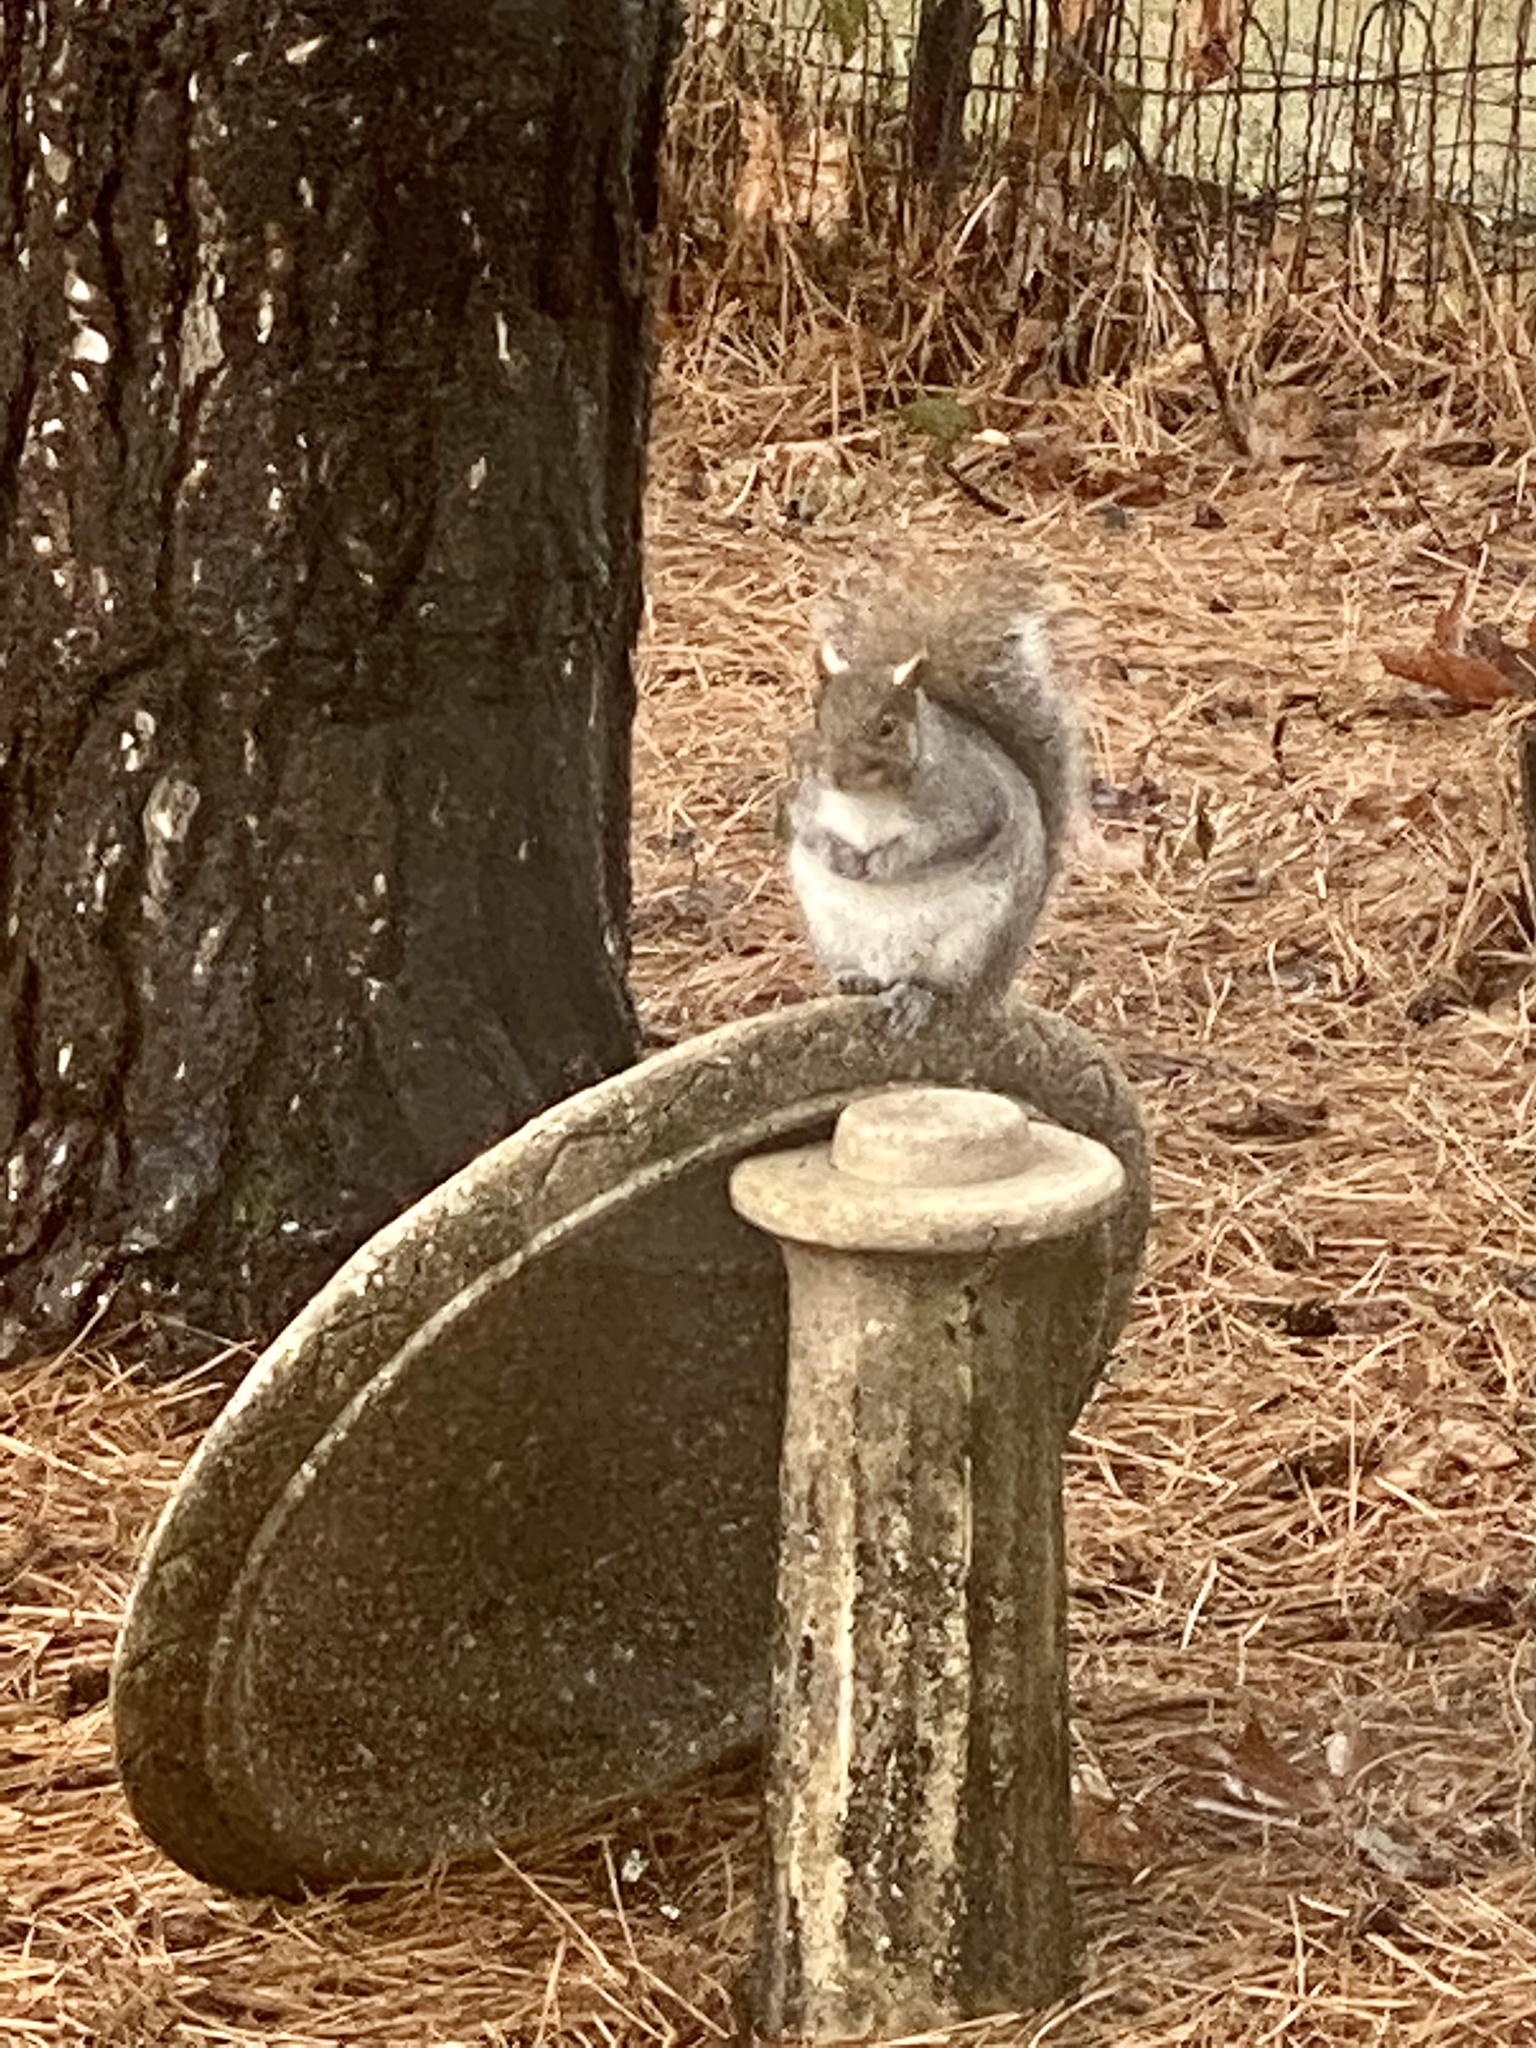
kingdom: Animalia
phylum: Chordata
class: Mammalia
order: Rodentia
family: Sciuridae
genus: Sciurus
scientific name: Sciurus carolinensis
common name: Eastern gray squirrel
